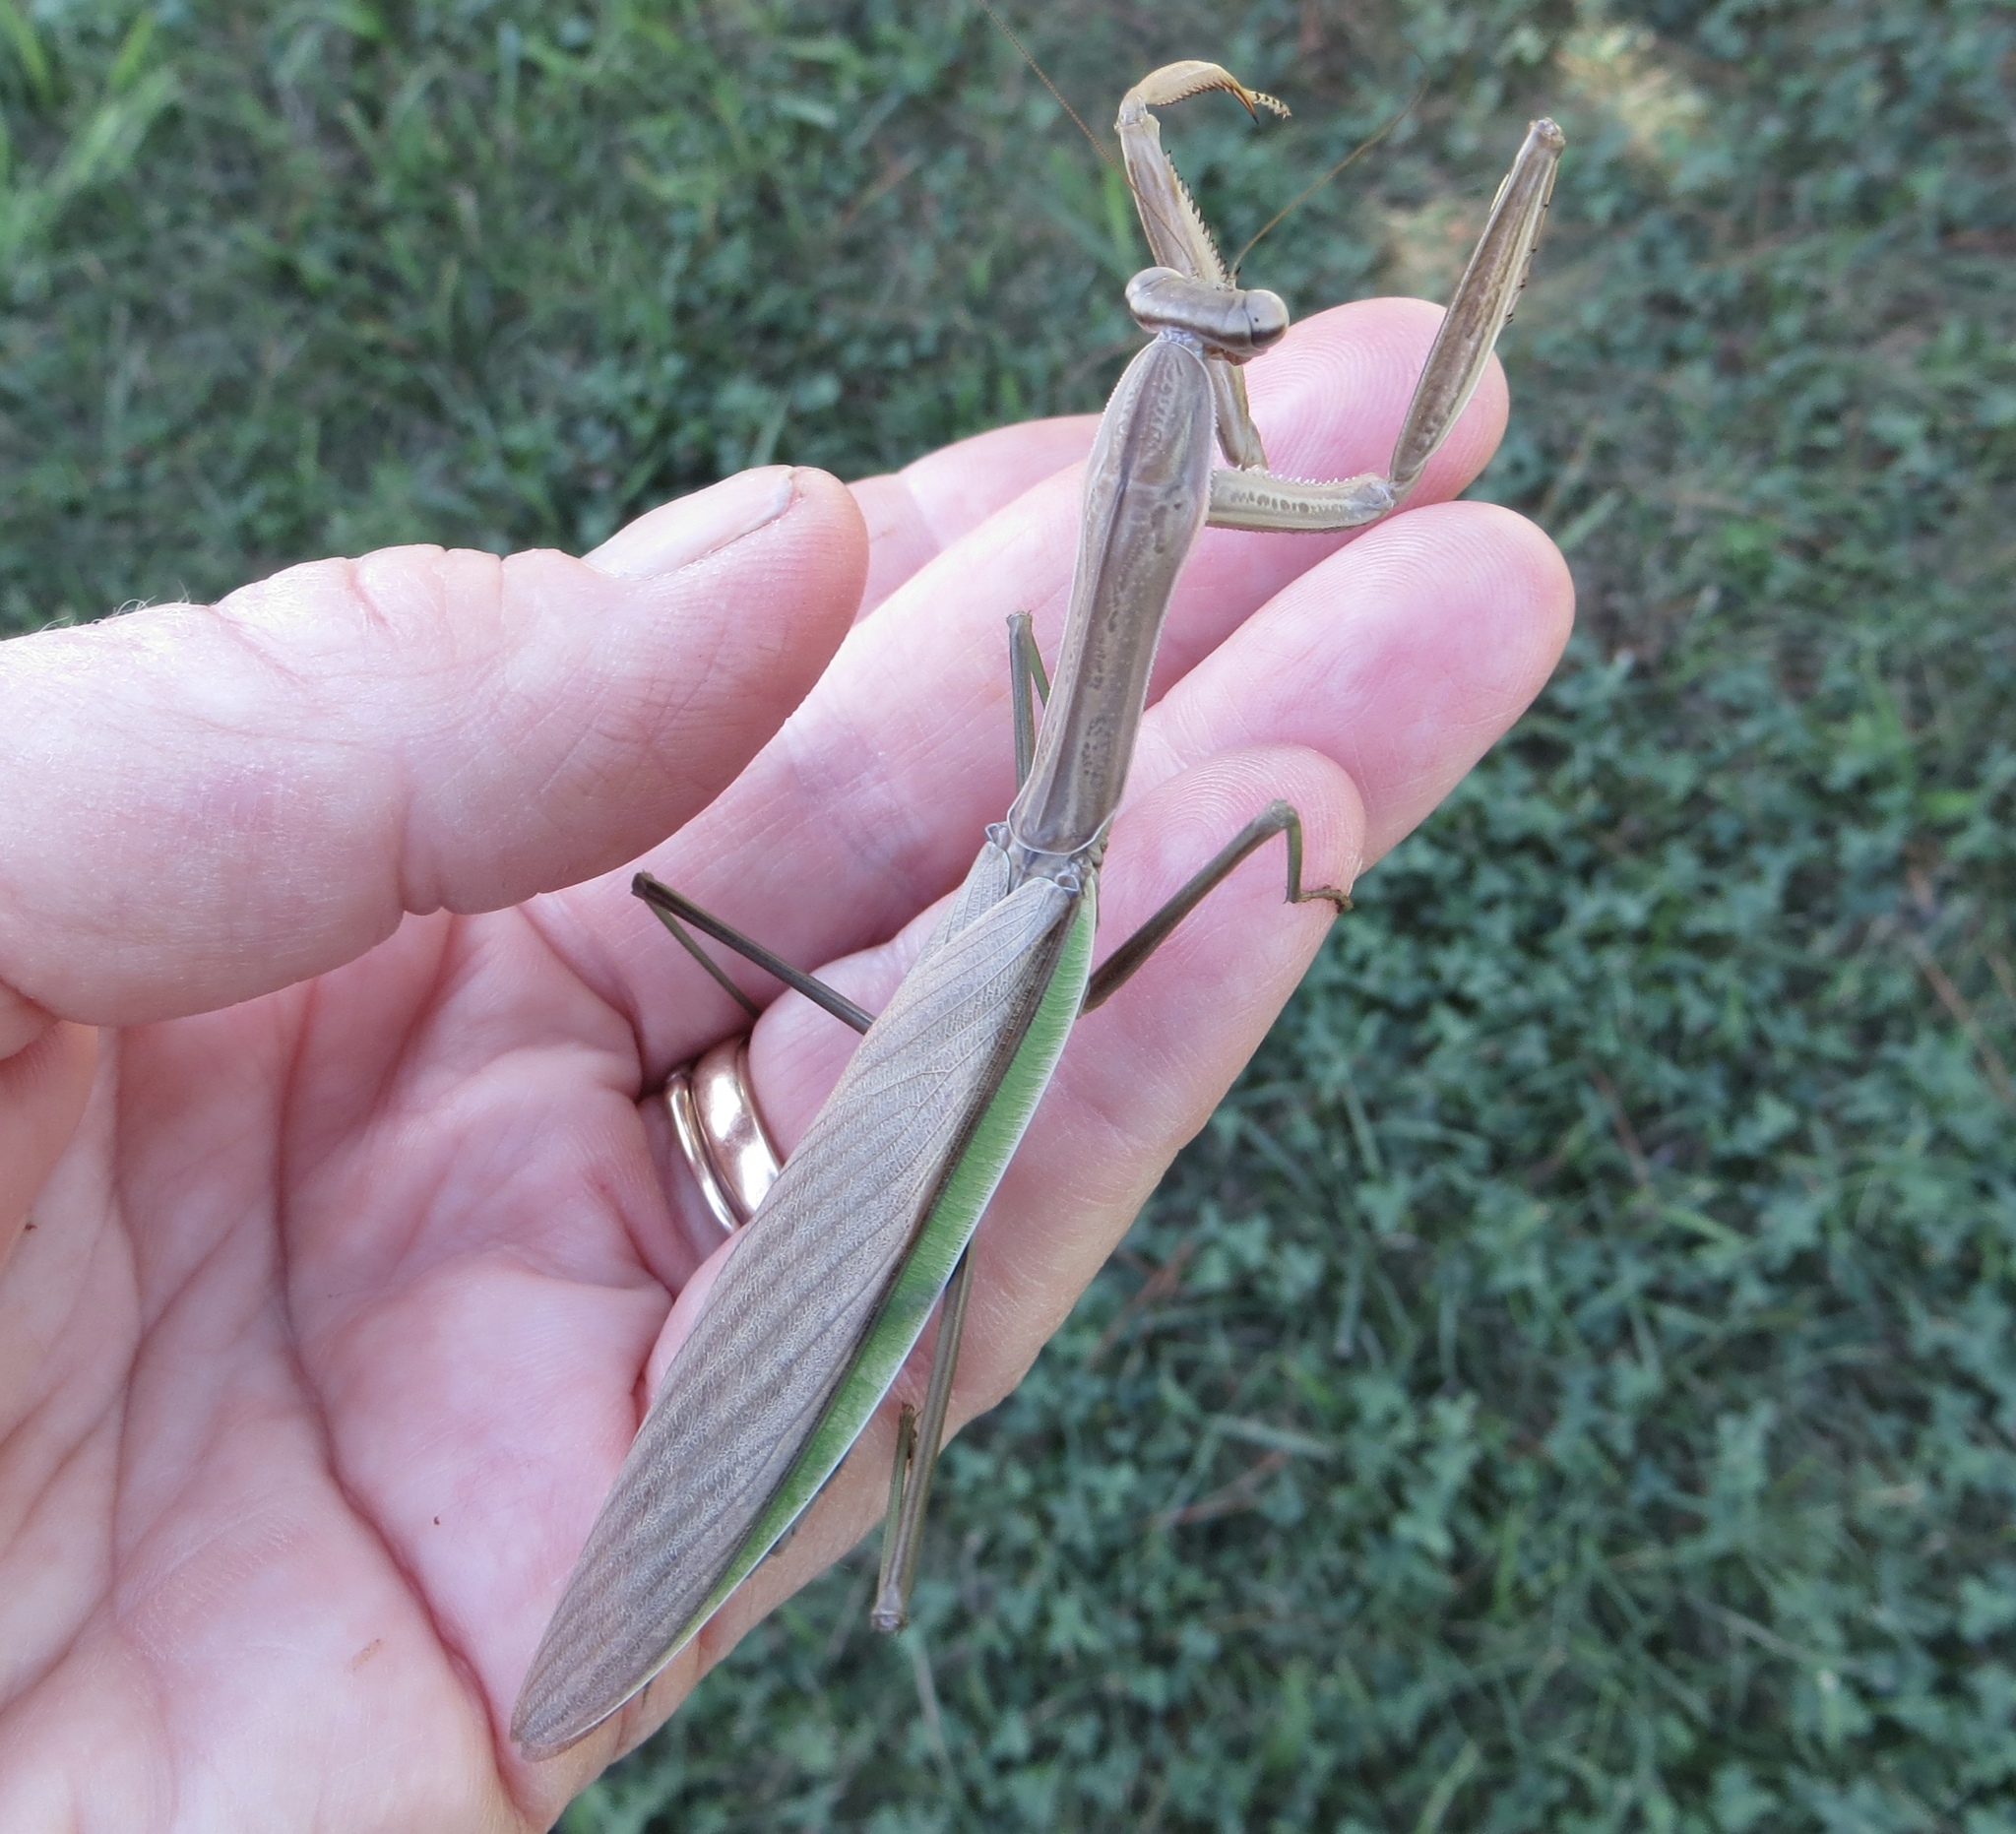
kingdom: Animalia
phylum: Arthropoda
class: Insecta
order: Mantodea
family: Mantidae
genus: Tenodera
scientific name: Tenodera sinensis
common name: Chinese mantis
